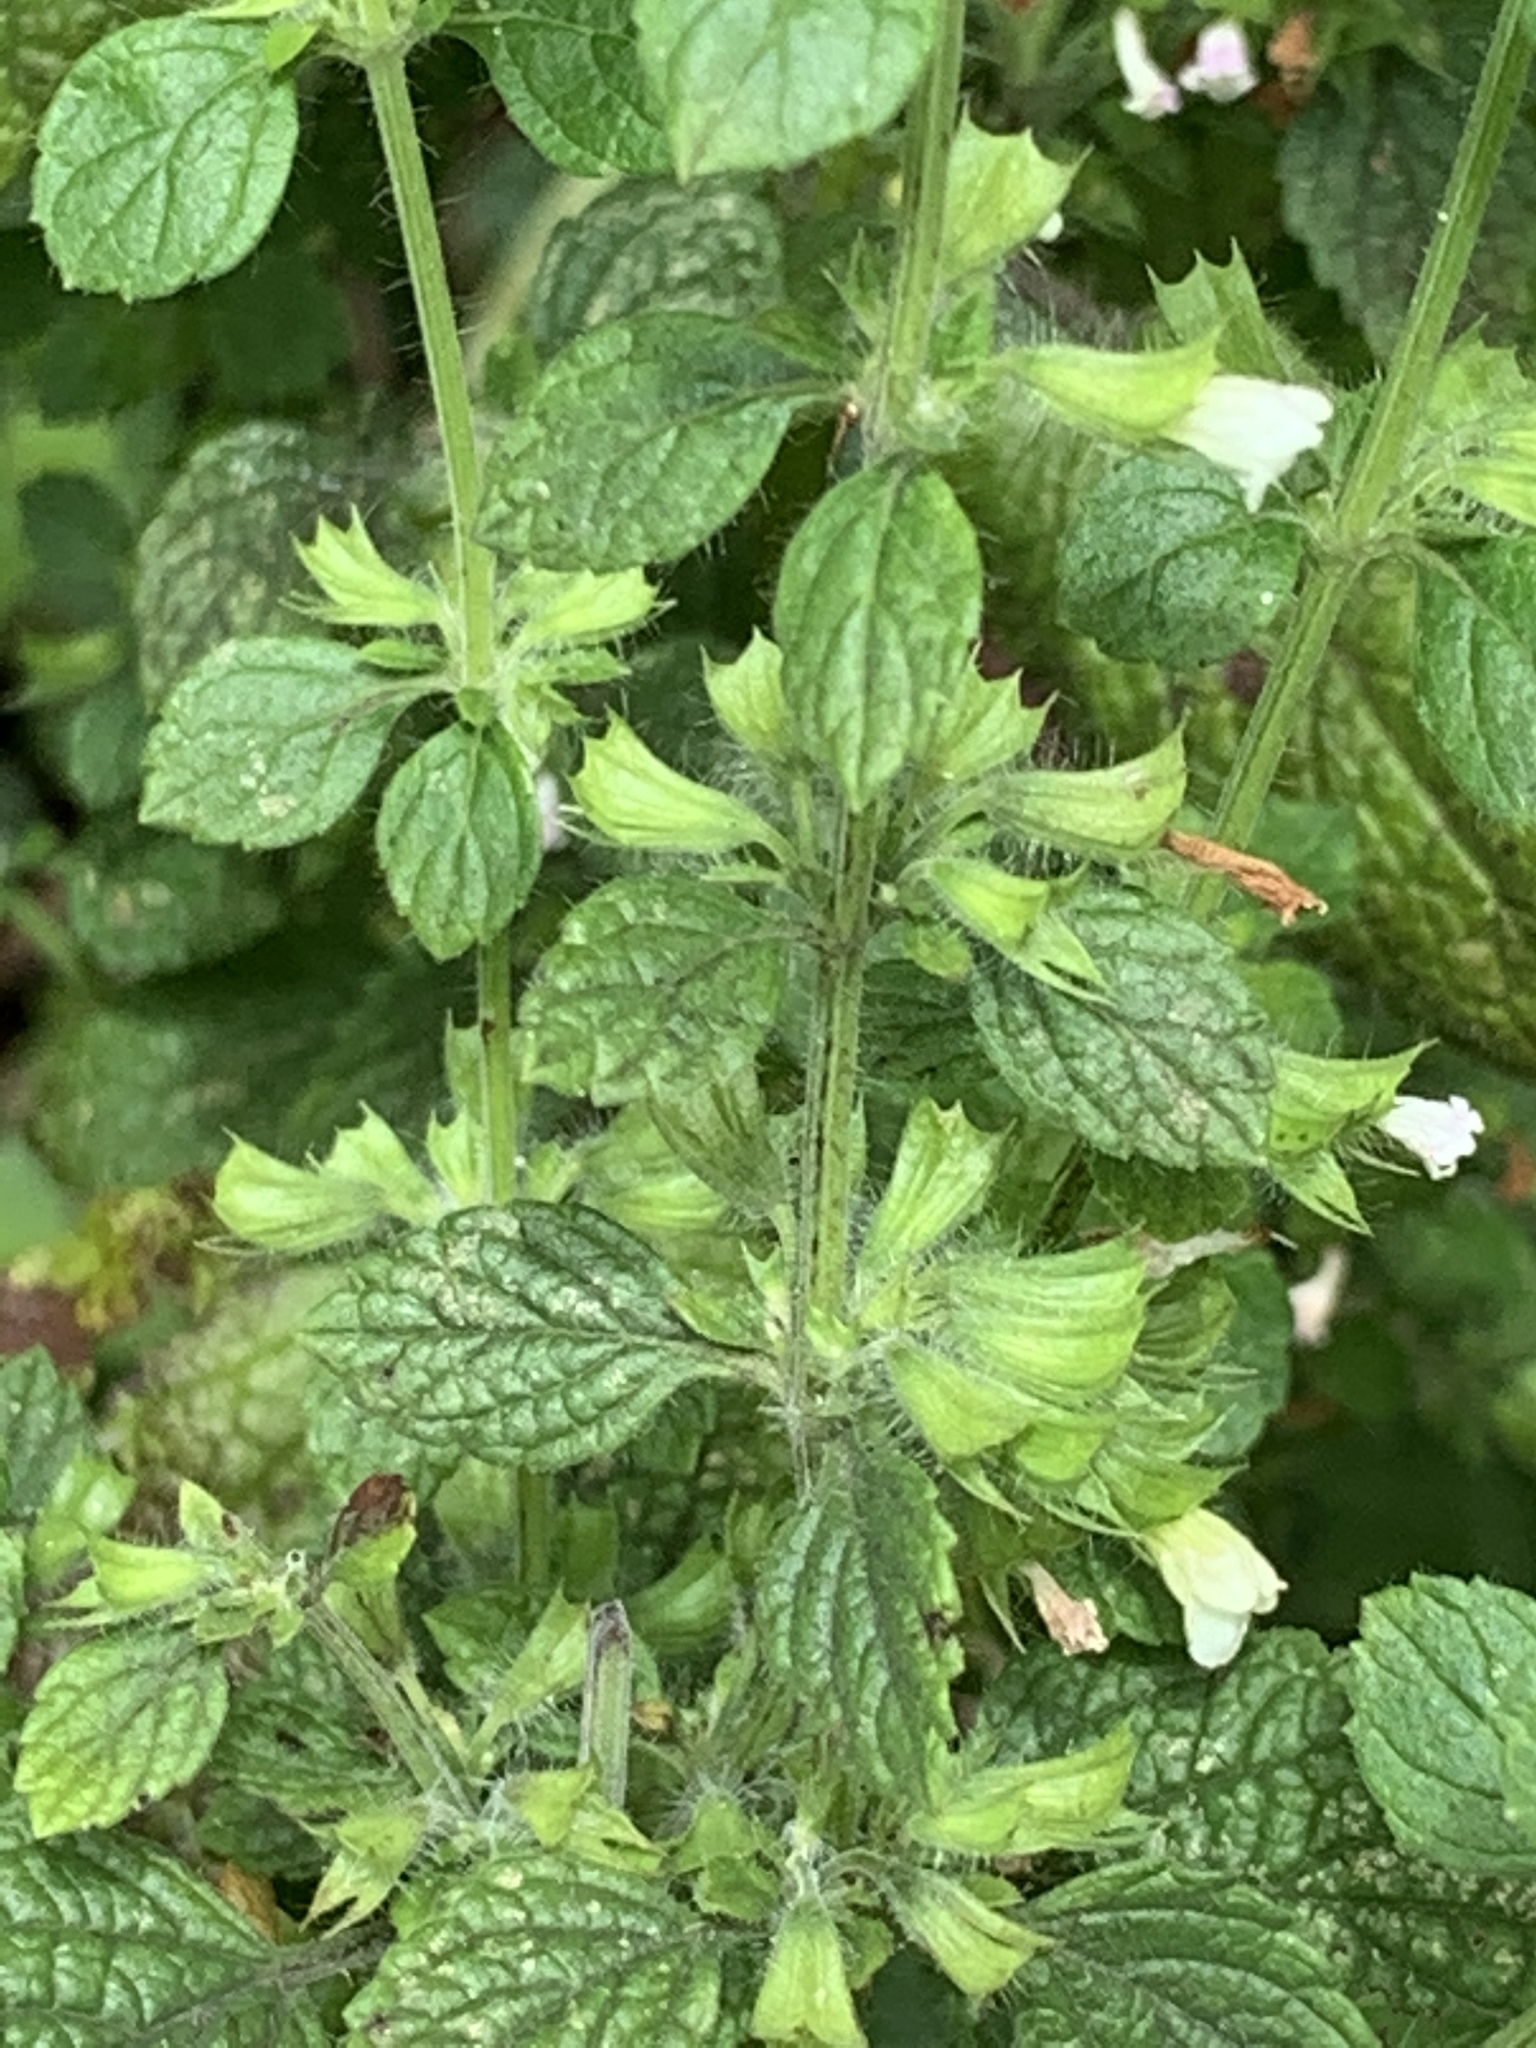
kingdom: Plantae
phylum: Tracheophyta
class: Magnoliopsida
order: Lamiales
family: Lamiaceae
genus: Melissa
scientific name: Melissa officinalis
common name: Balm
